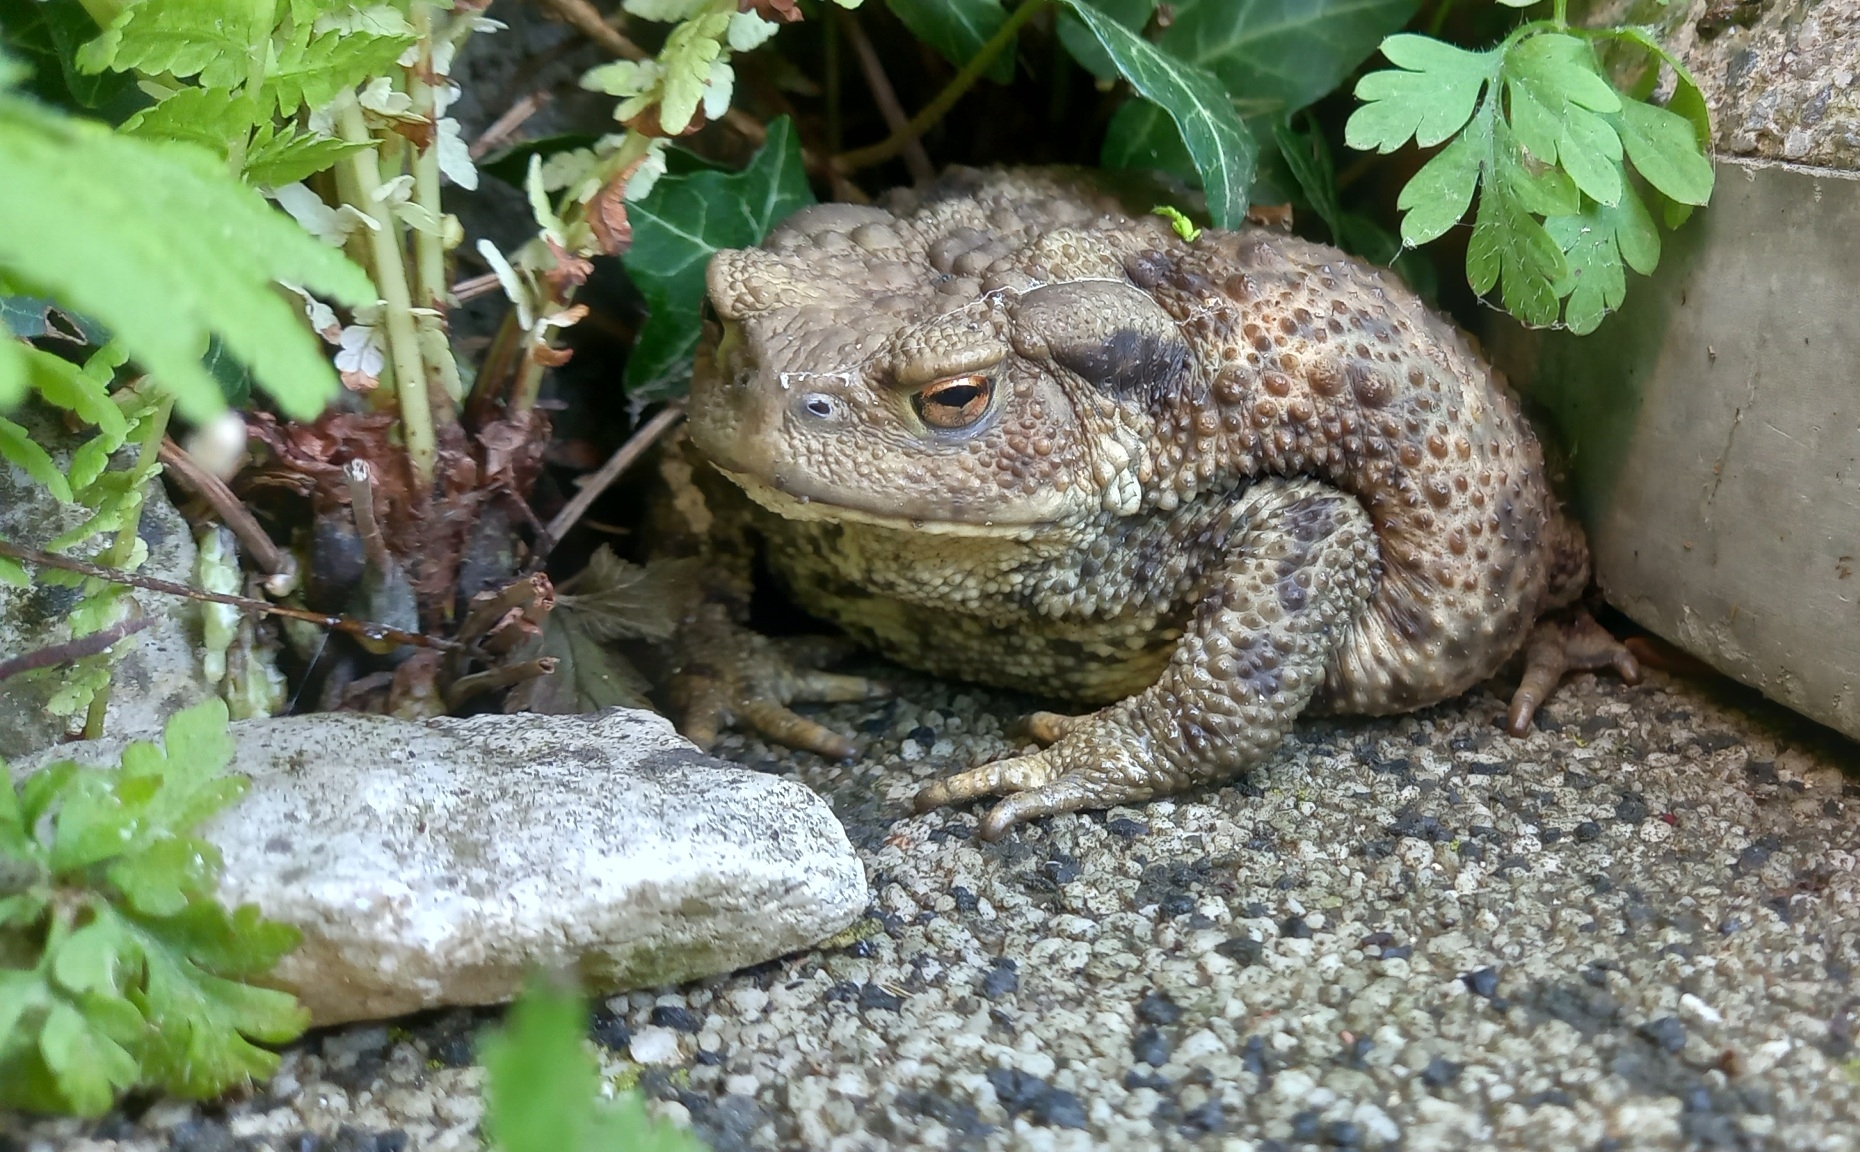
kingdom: Animalia
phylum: Chordata
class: Amphibia
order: Anura
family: Bufonidae
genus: Bufo
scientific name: Bufo bufo
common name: Common toad
